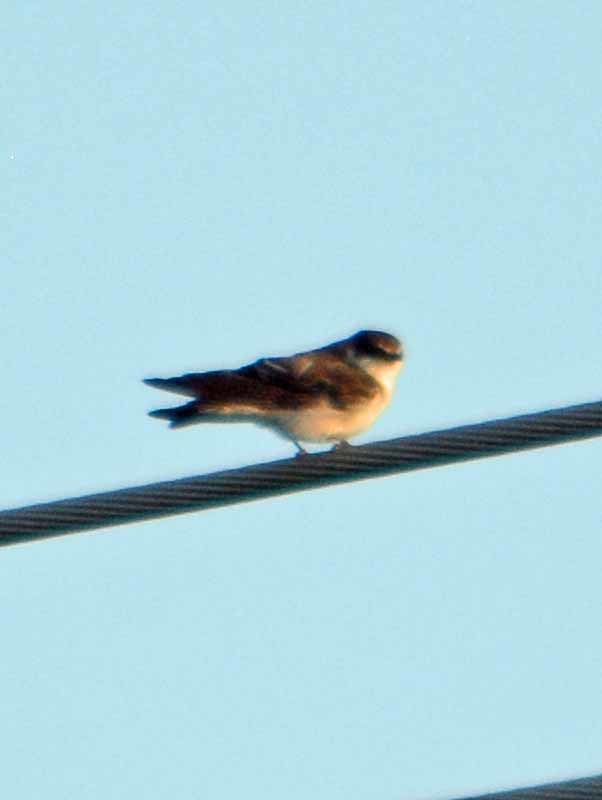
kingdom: Animalia
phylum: Chordata
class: Aves
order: Passeriformes
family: Hirundinidae
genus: Tachycineta
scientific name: Tachycineta albilinea
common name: Mangrove swallow
